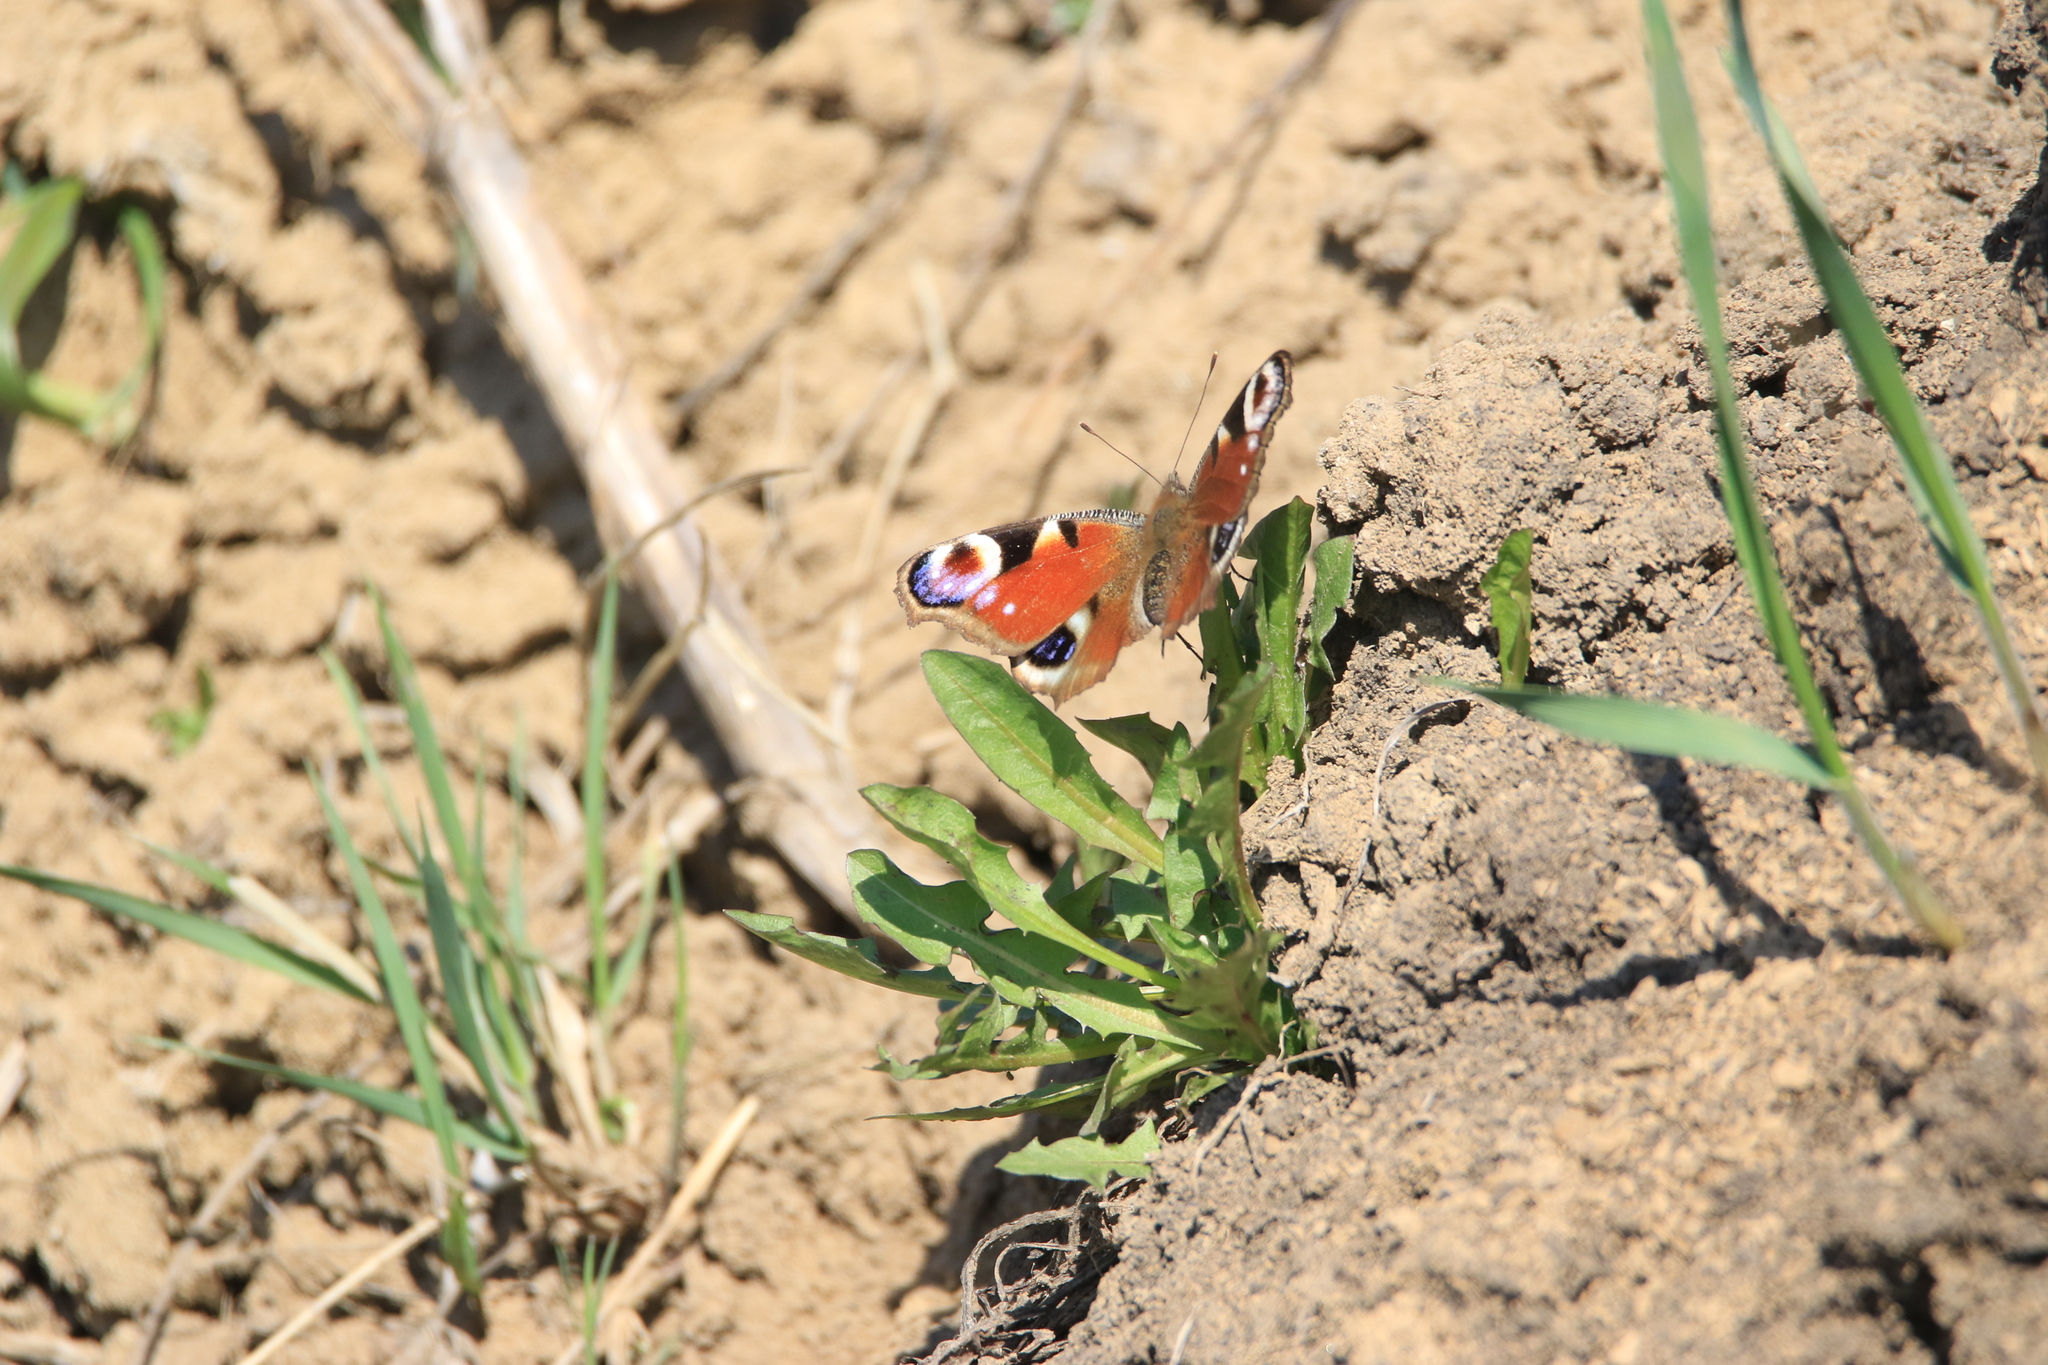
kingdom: Animalia
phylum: Arthropoda
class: Insecta
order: Lepidoptera
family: Nymphalidae
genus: Aglais
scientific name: Aglais io
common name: Peacock
